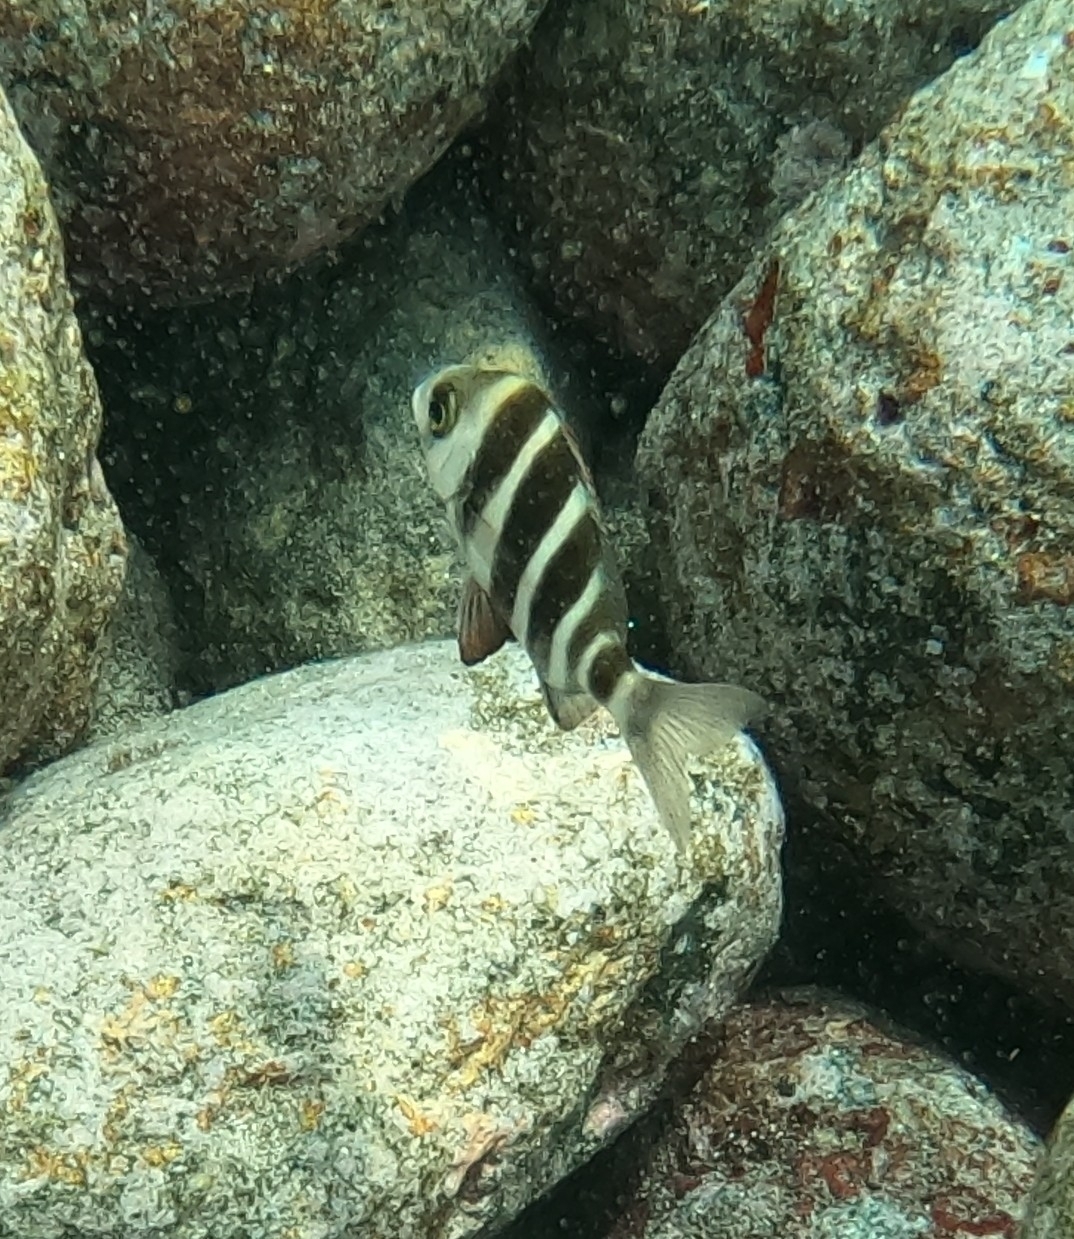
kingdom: Animalia
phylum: Chordata
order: Perciformes
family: Sparidae
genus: Diplodus
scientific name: Diplodus cervinus
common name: Oman porgy
